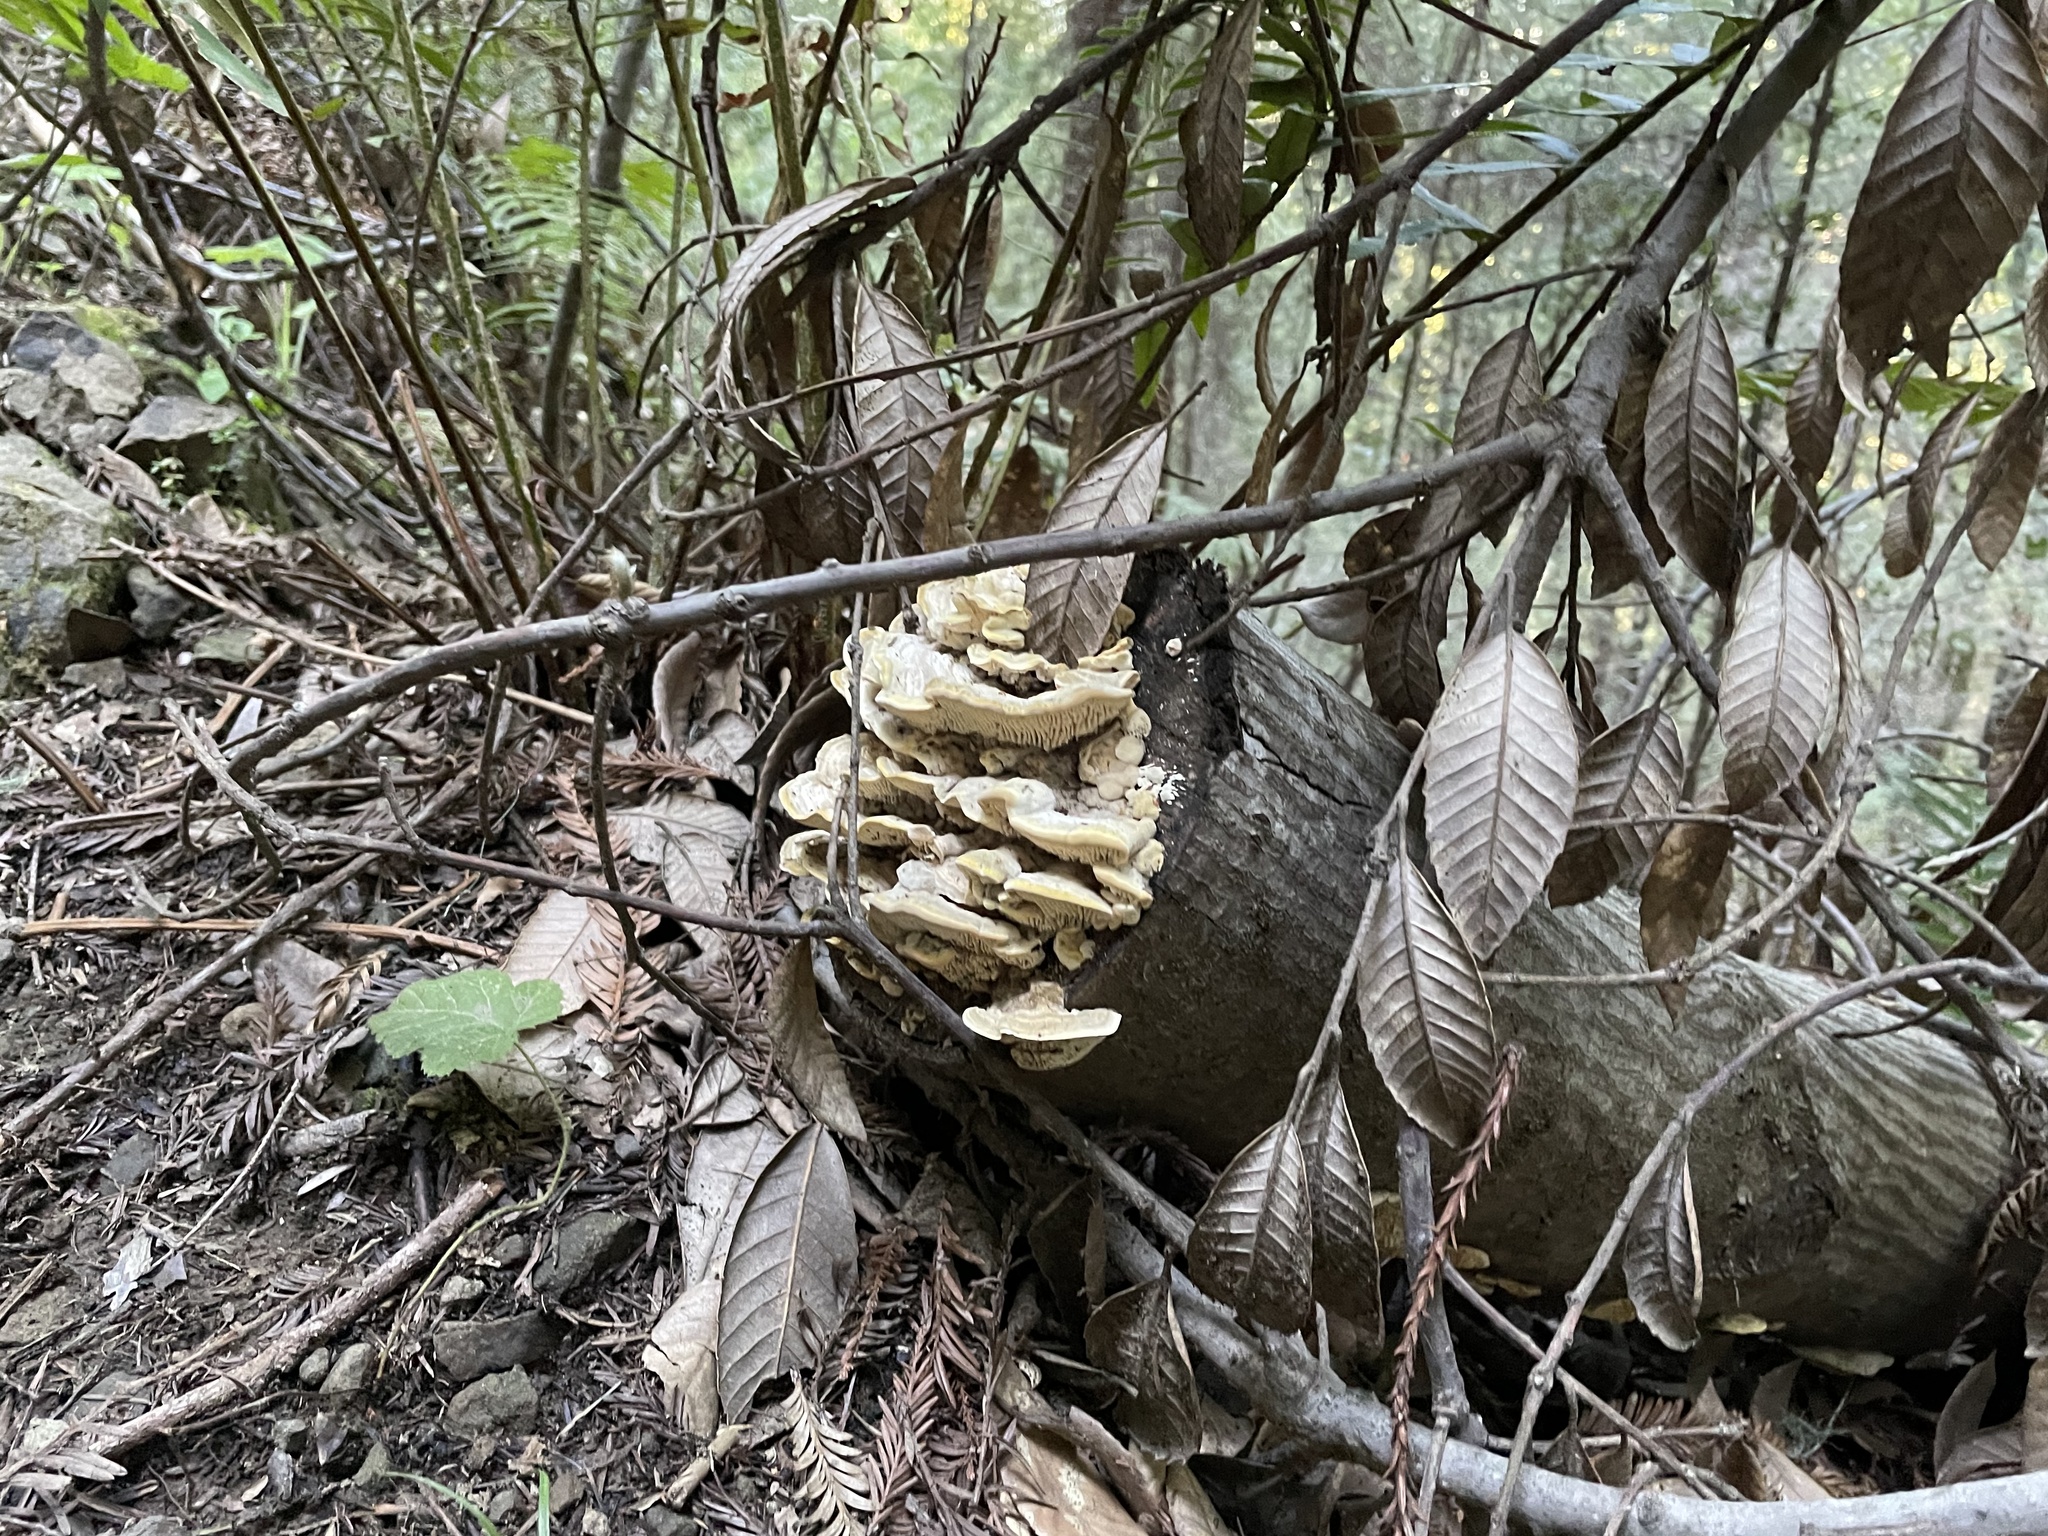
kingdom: Fungi
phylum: Basidiomycota
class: Agaricomycetes
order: Polyporales
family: Polyporaceae
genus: Lenzites
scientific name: Lenzites betulinus
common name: Birch mazegill
